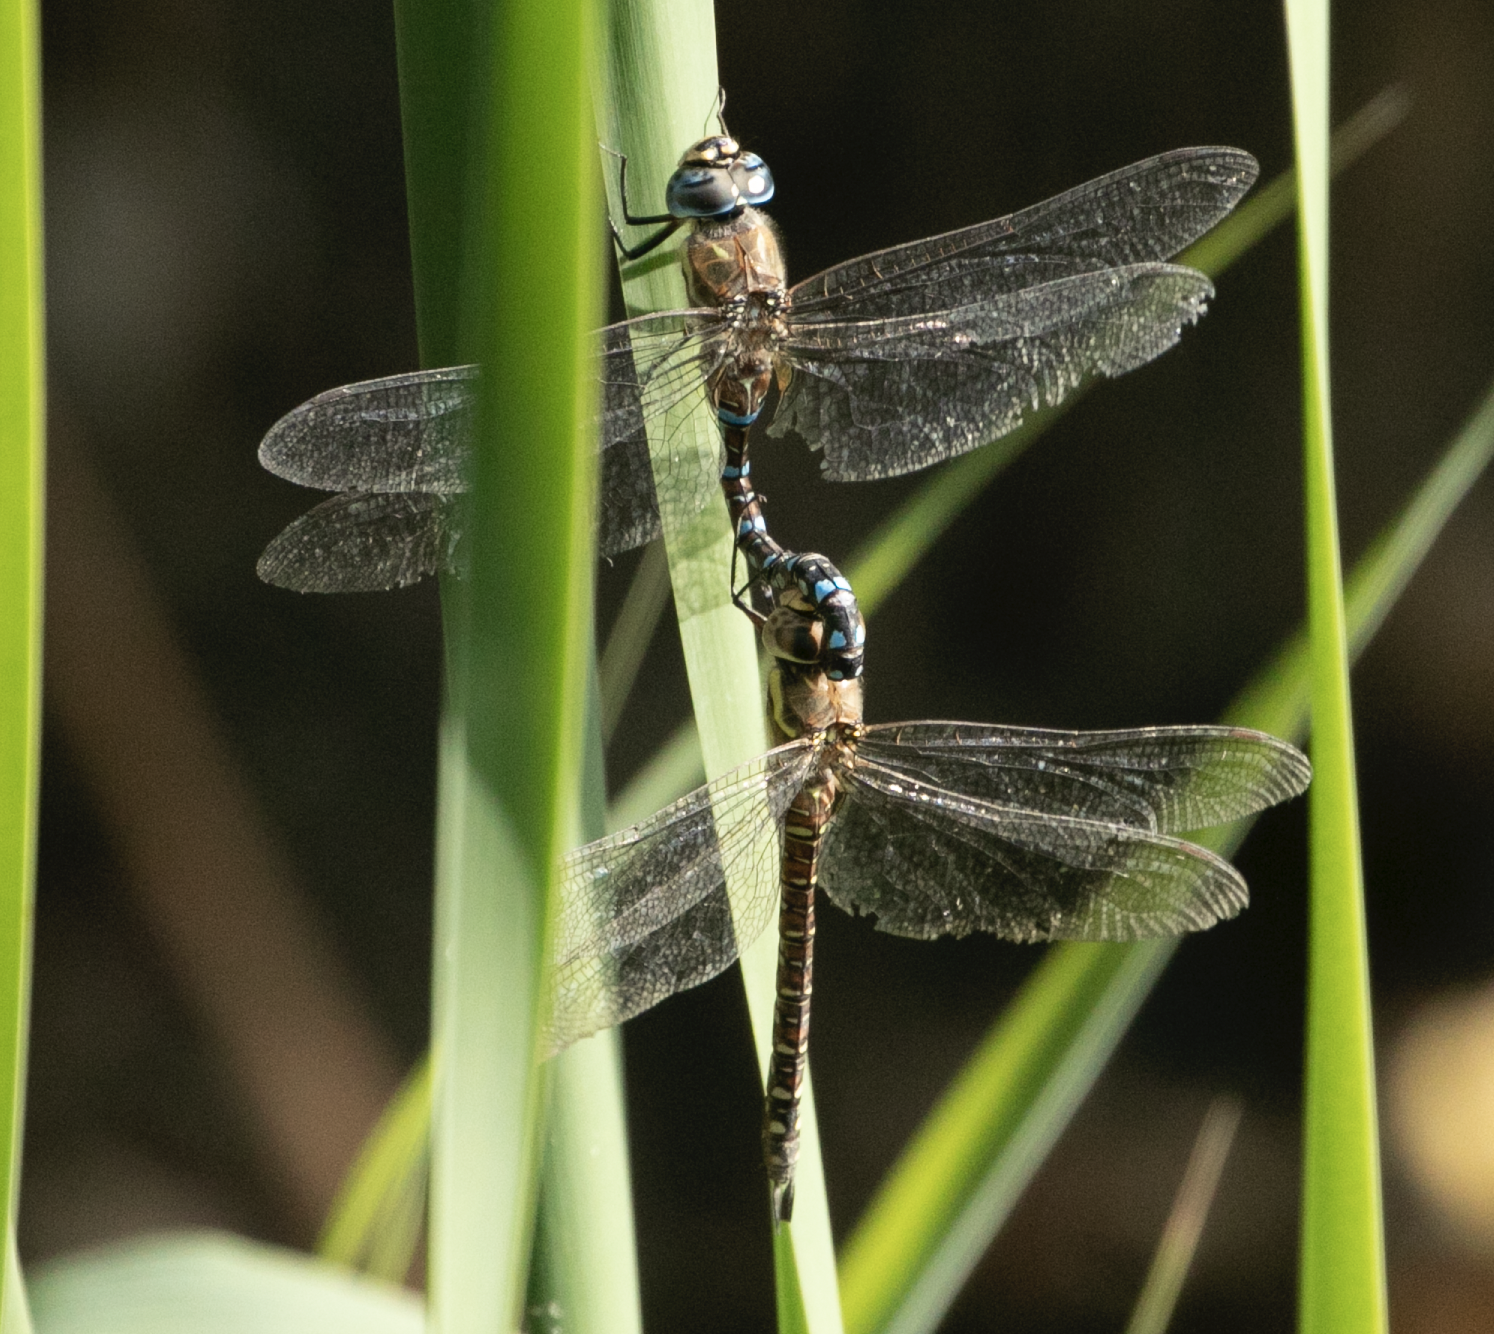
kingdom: Animalia
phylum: Arthropoda
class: Insecta
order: Odonata
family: Aeshnidae
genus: Aeshna
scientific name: Aeshna mixta
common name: Migrant hawker
